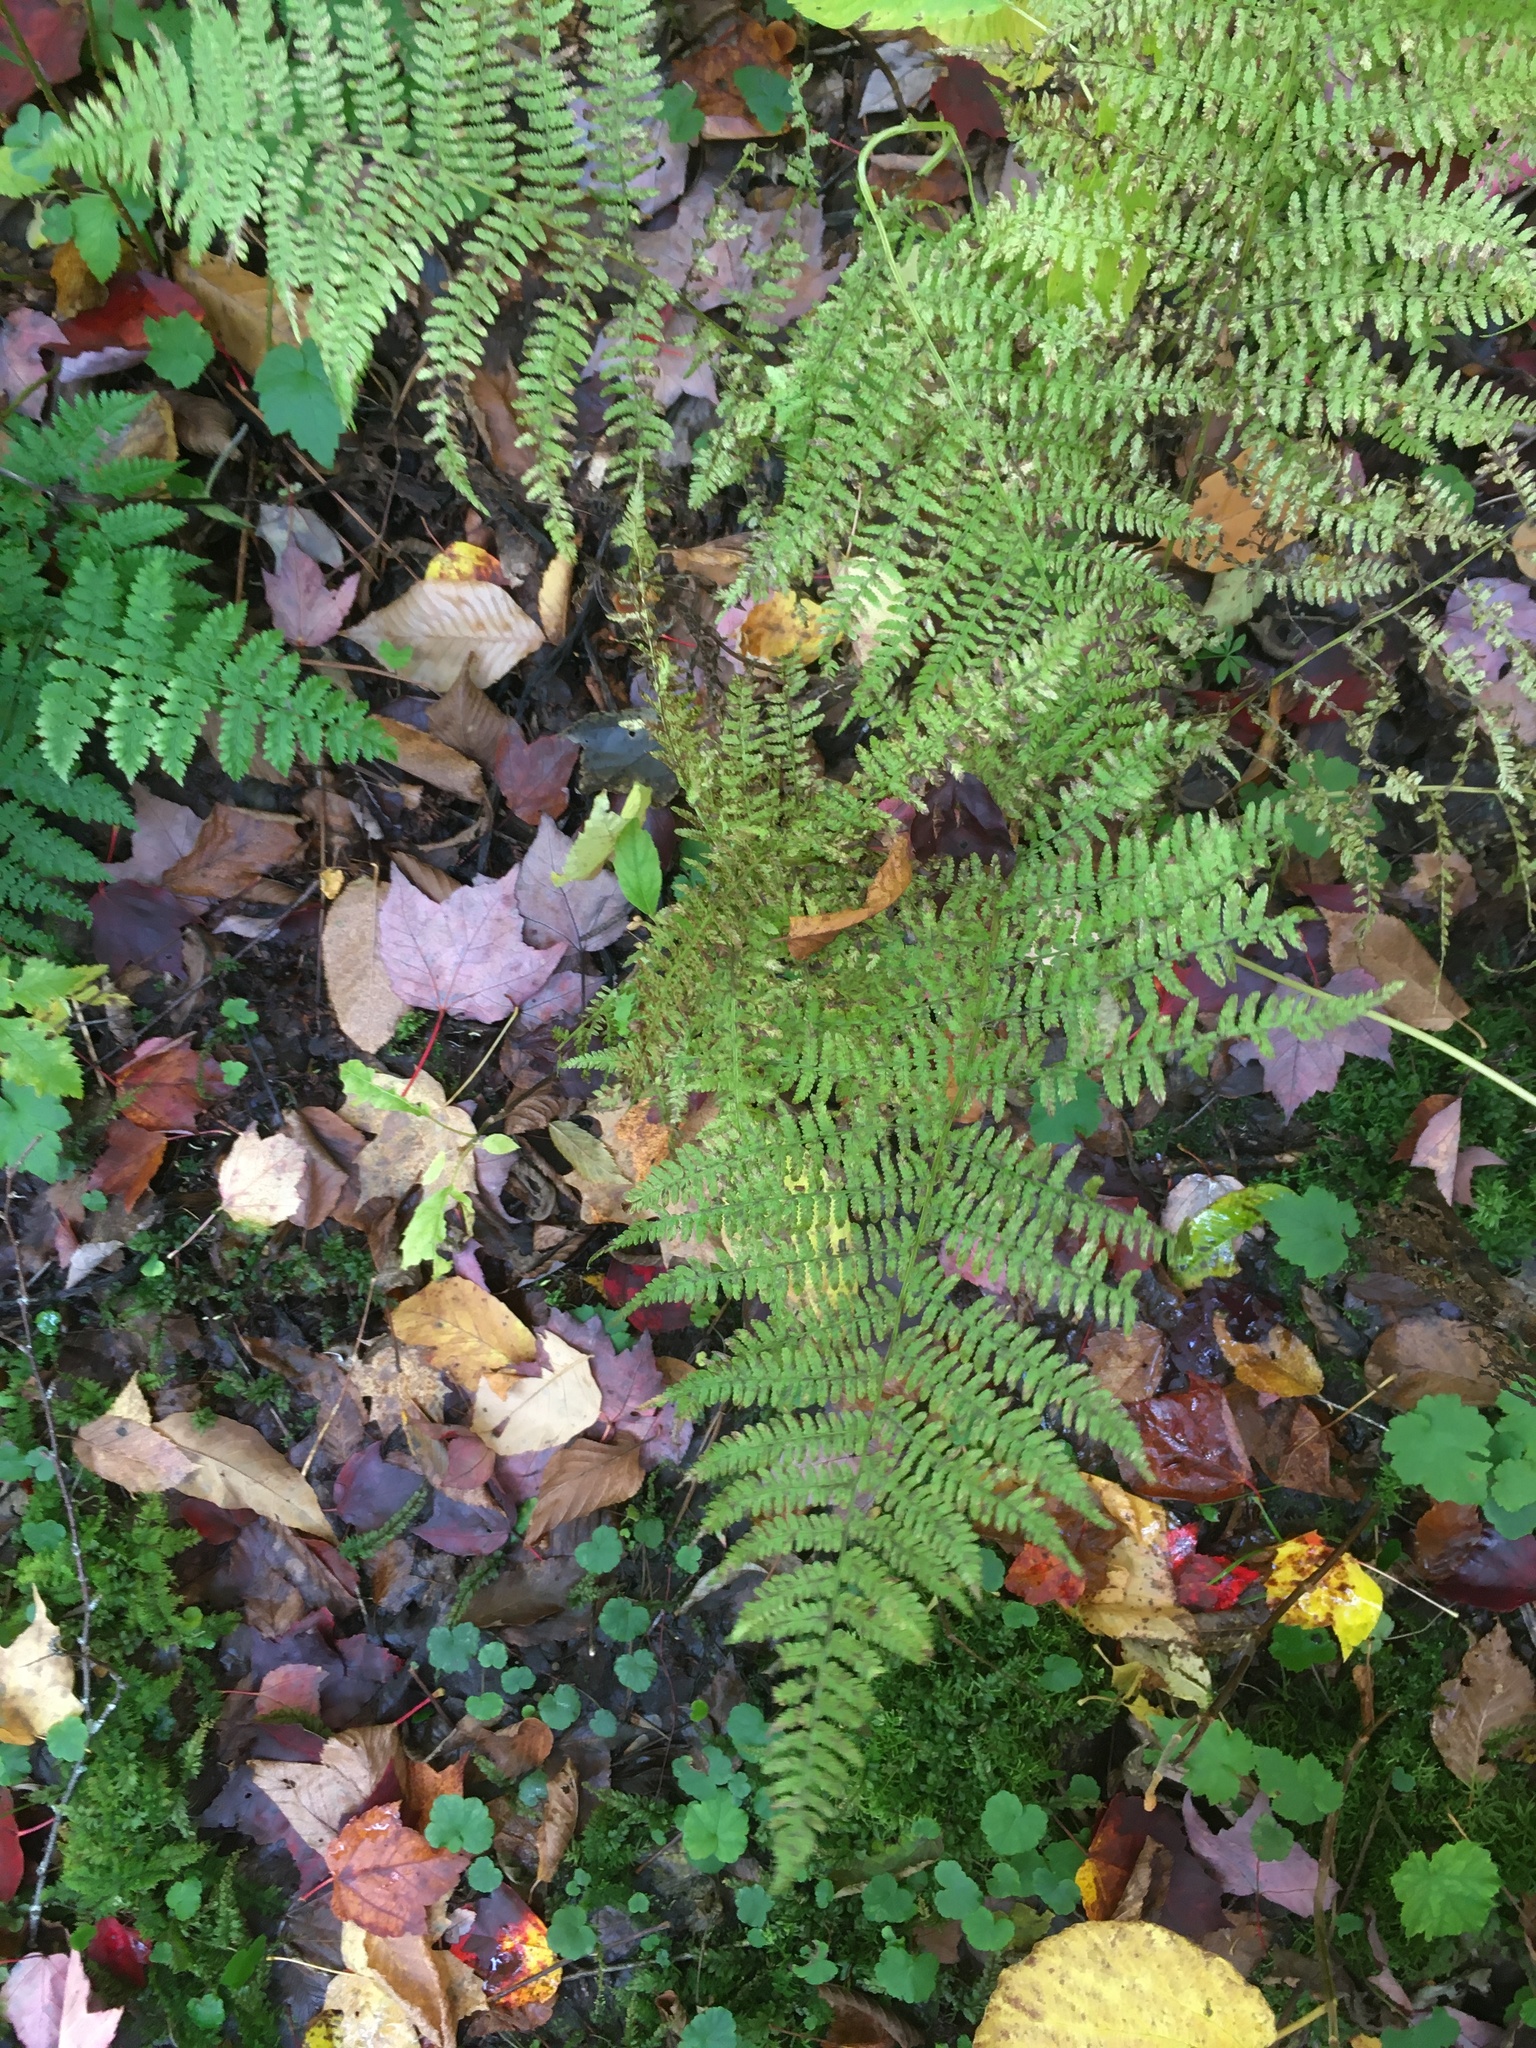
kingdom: Plantae
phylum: Tracheophyta
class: Polypodiopsida
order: Polypodiales
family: Athyriaceae
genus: Athyrium
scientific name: Athyrium angustum
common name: Northern lady fern
